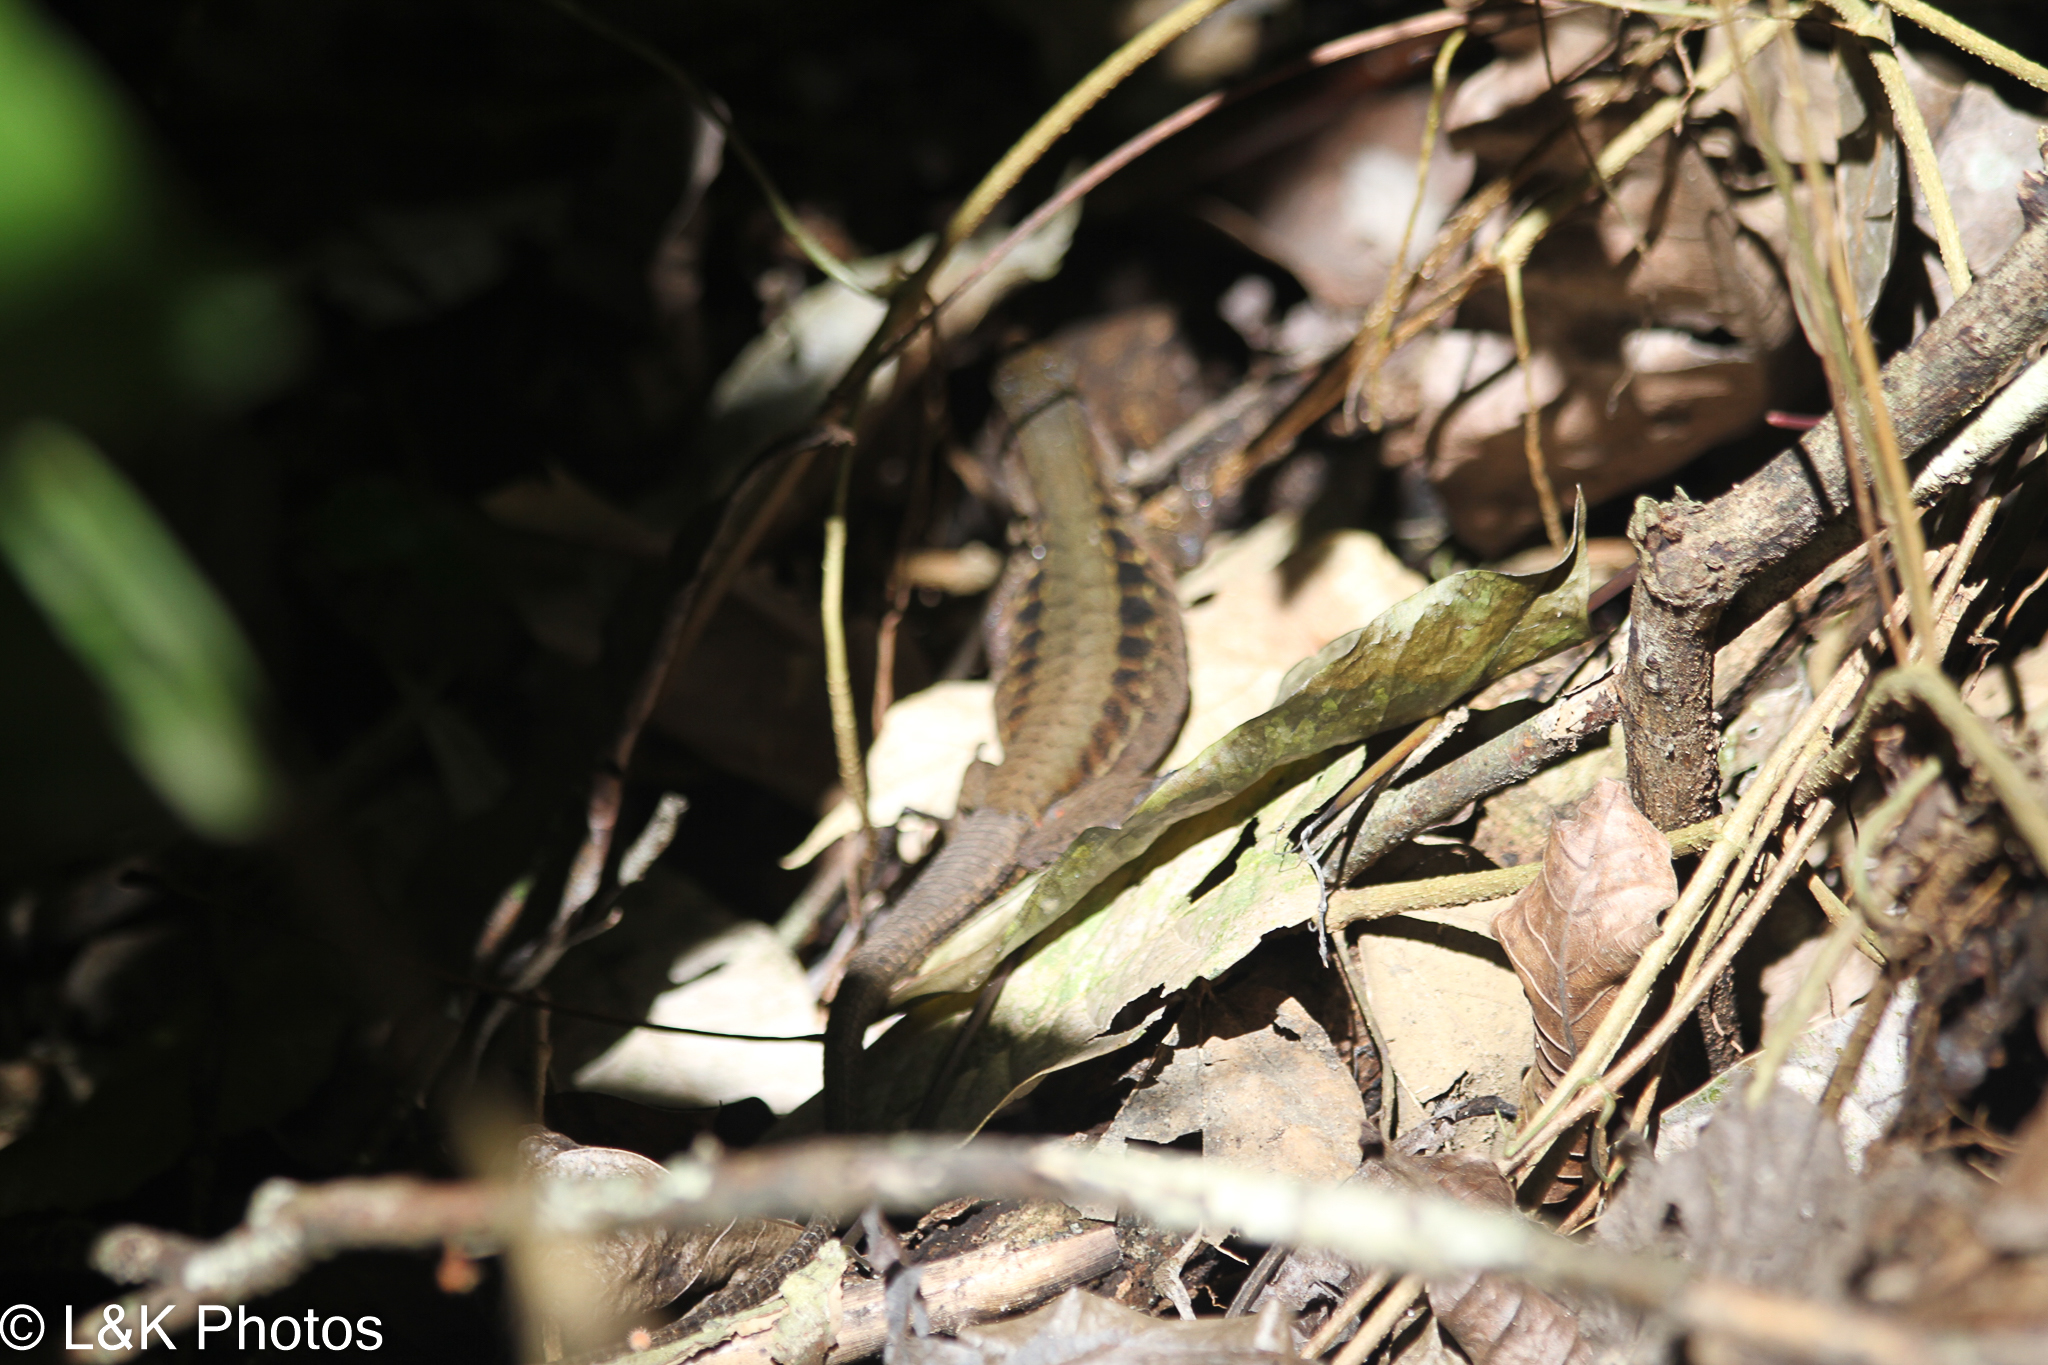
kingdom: Animalia
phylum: Chordata
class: Squamata
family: Teiidae
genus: Holcosus
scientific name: Holcosus leptophrys
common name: Delicate ameiva
